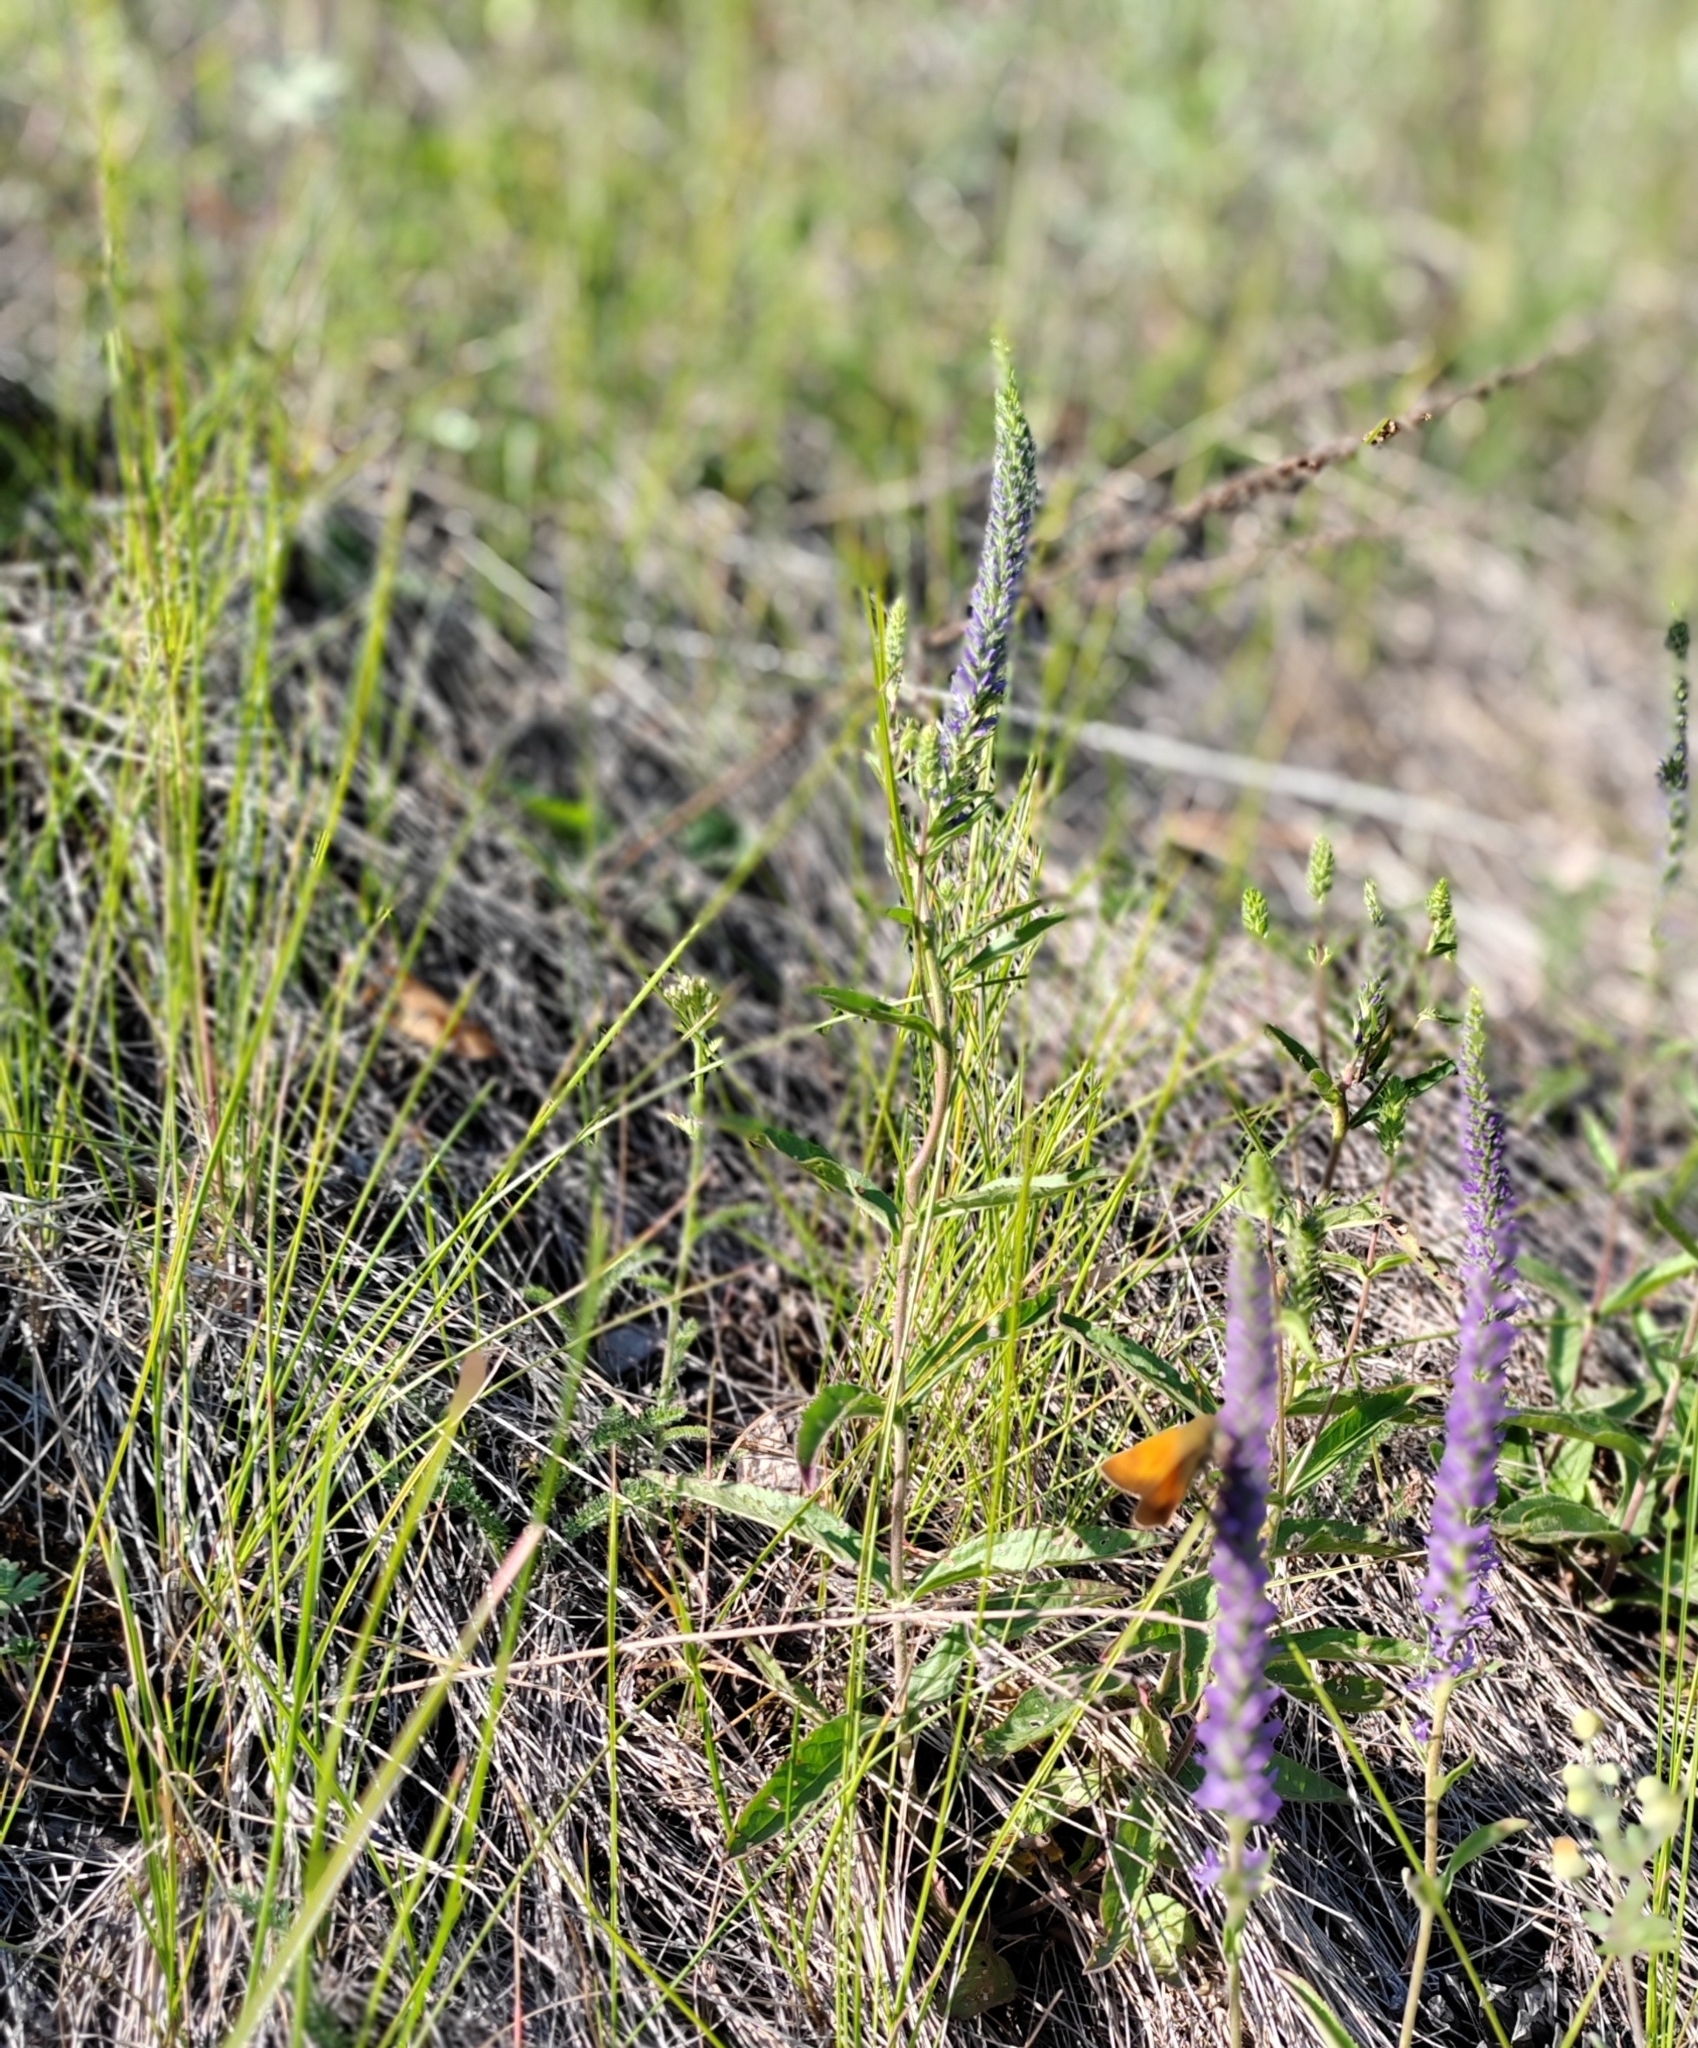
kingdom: Plantae
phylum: Tracheophyta
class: Magnoliopsida
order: Lamiales
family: Plantaginaceae
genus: Veronica
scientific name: Veronica spicata
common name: Spiked speedwell
